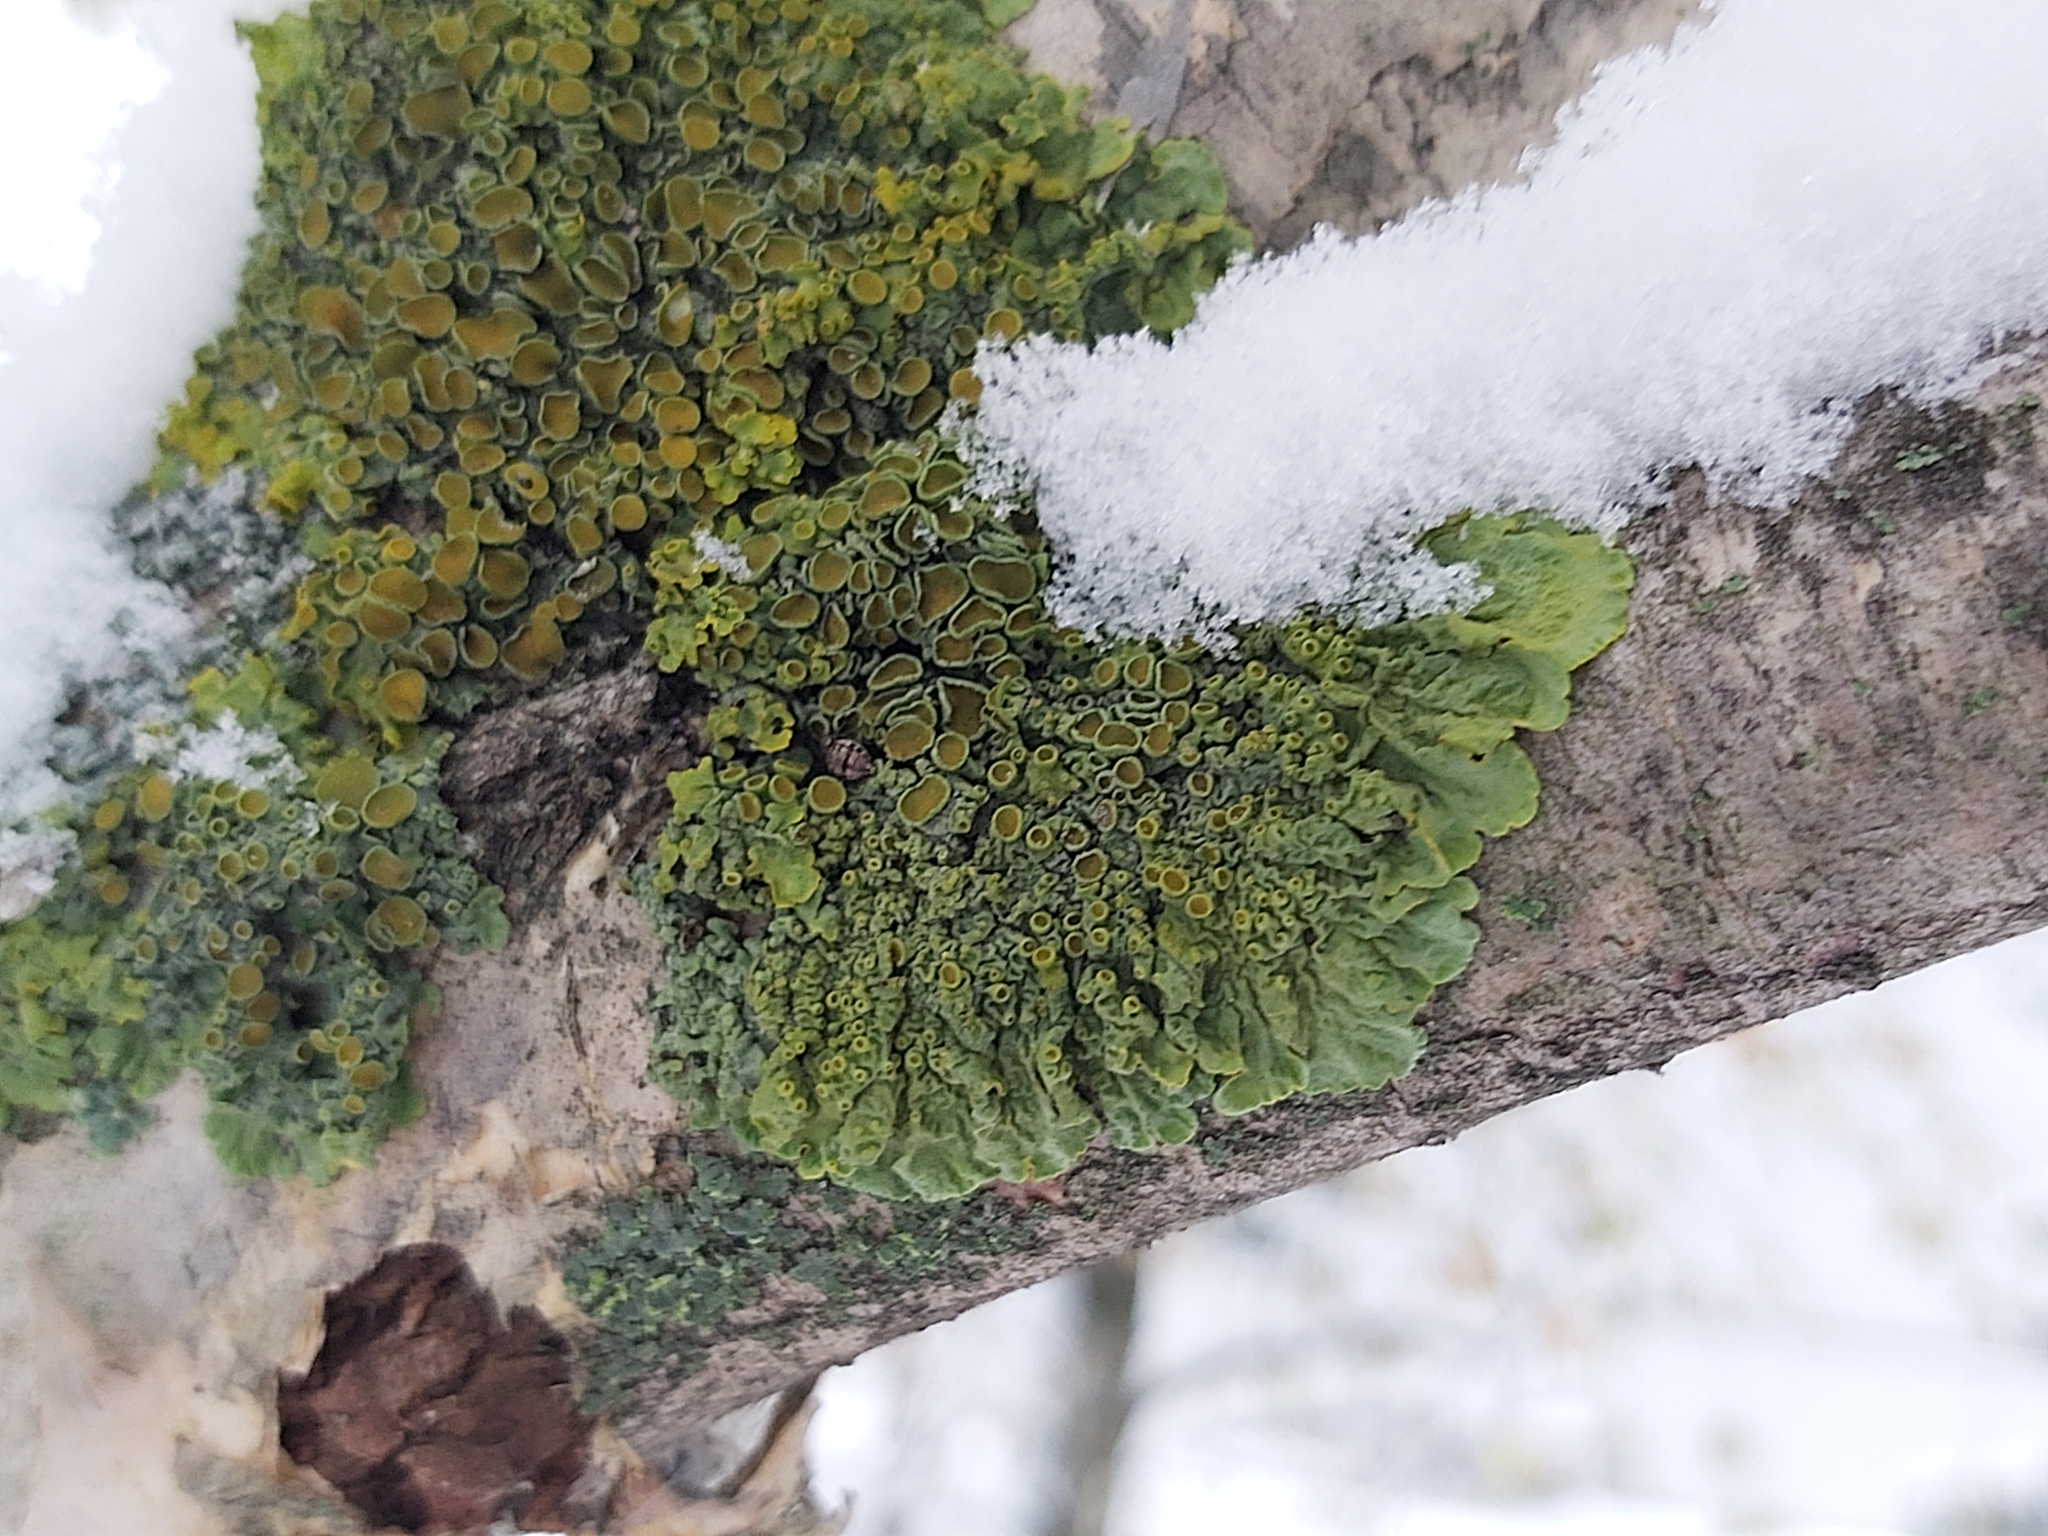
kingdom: Fungi
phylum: Ascomycota
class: Lecanoromycetes
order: Teloschistales
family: Teloschistaceae
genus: Xanthoria
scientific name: Xanthoria parietina
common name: Common orange lichen
